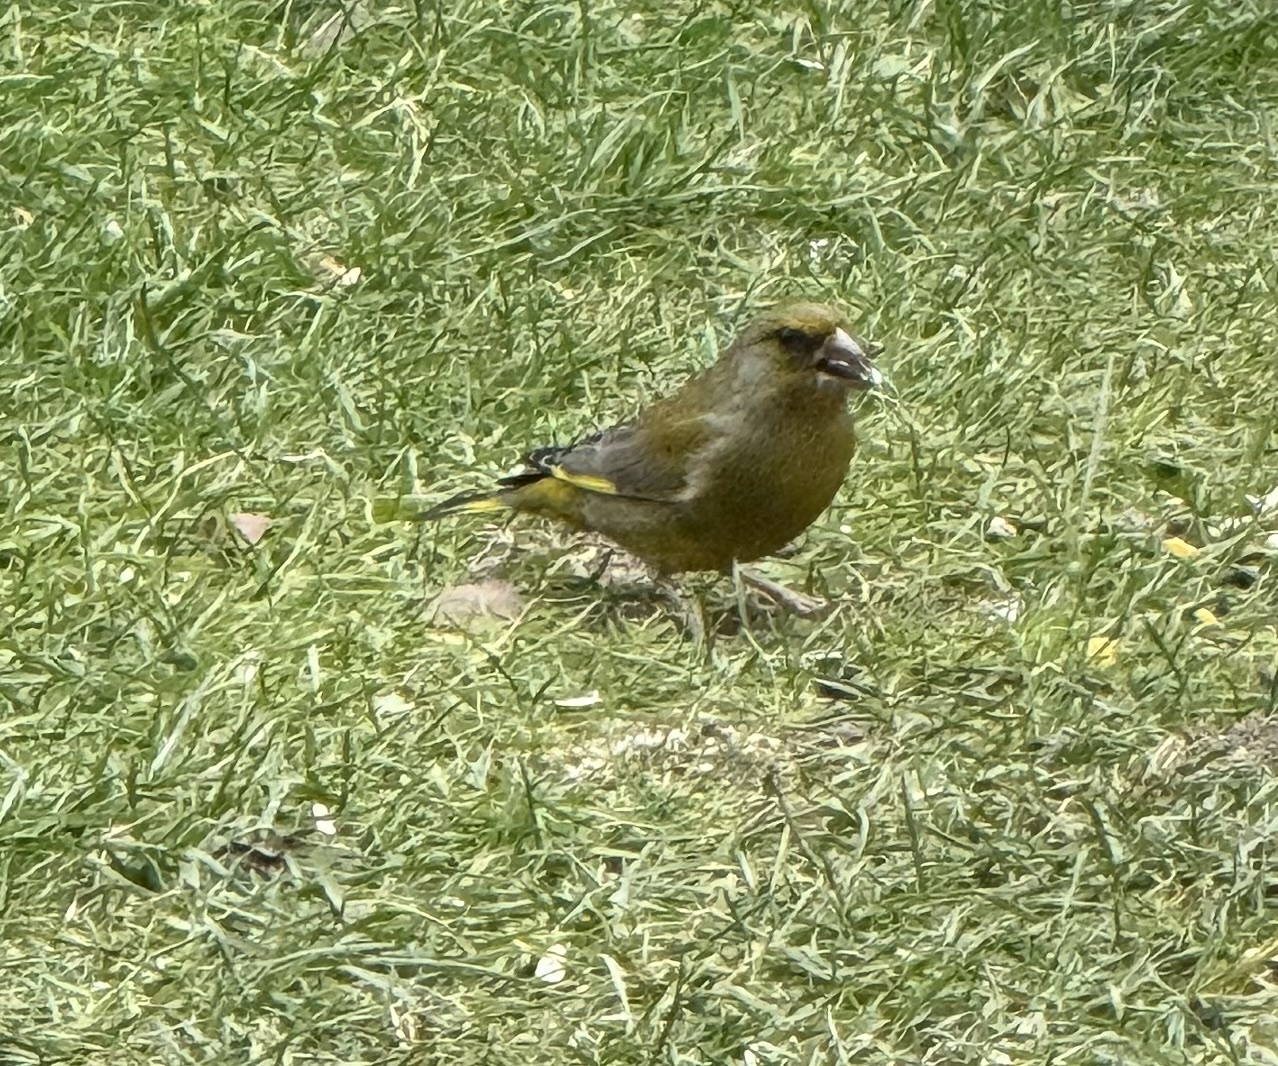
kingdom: Plantae
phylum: Tracheophyta
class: Liliopsida
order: Poales
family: Poaceae
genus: Chloris
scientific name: Chloris chloris
